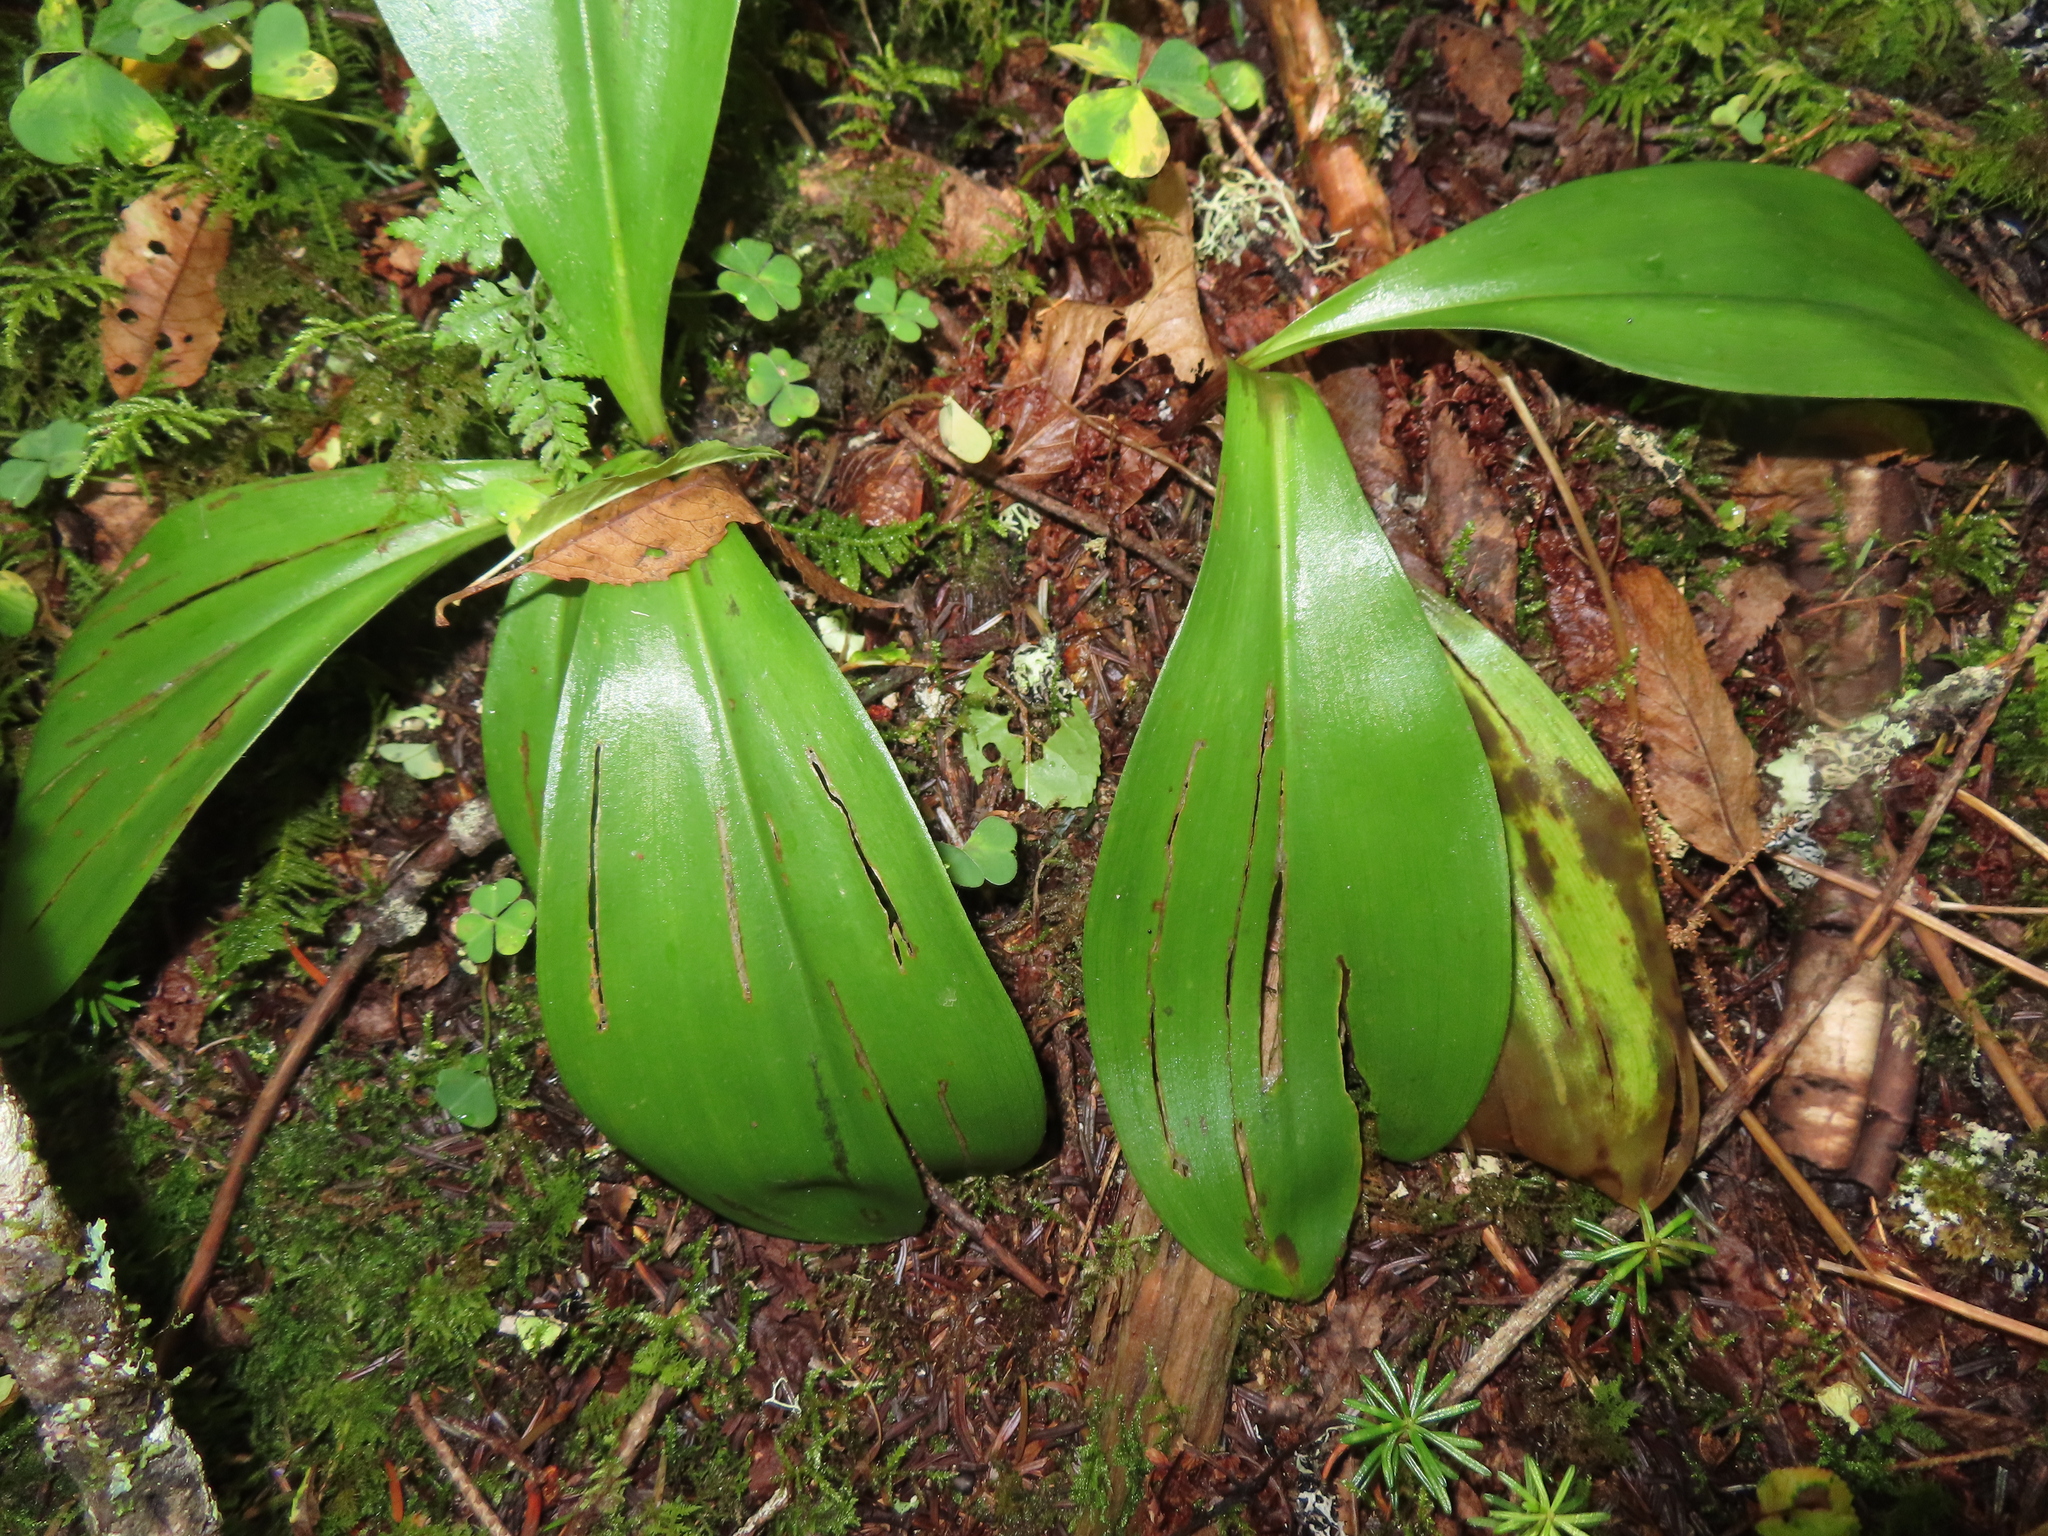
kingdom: Plantae
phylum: Tracheophyta
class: Liliopsida
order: Liliales
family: Liliaceae
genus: Clintonia
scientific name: Clintonia borealis
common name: Yellow clintonia
